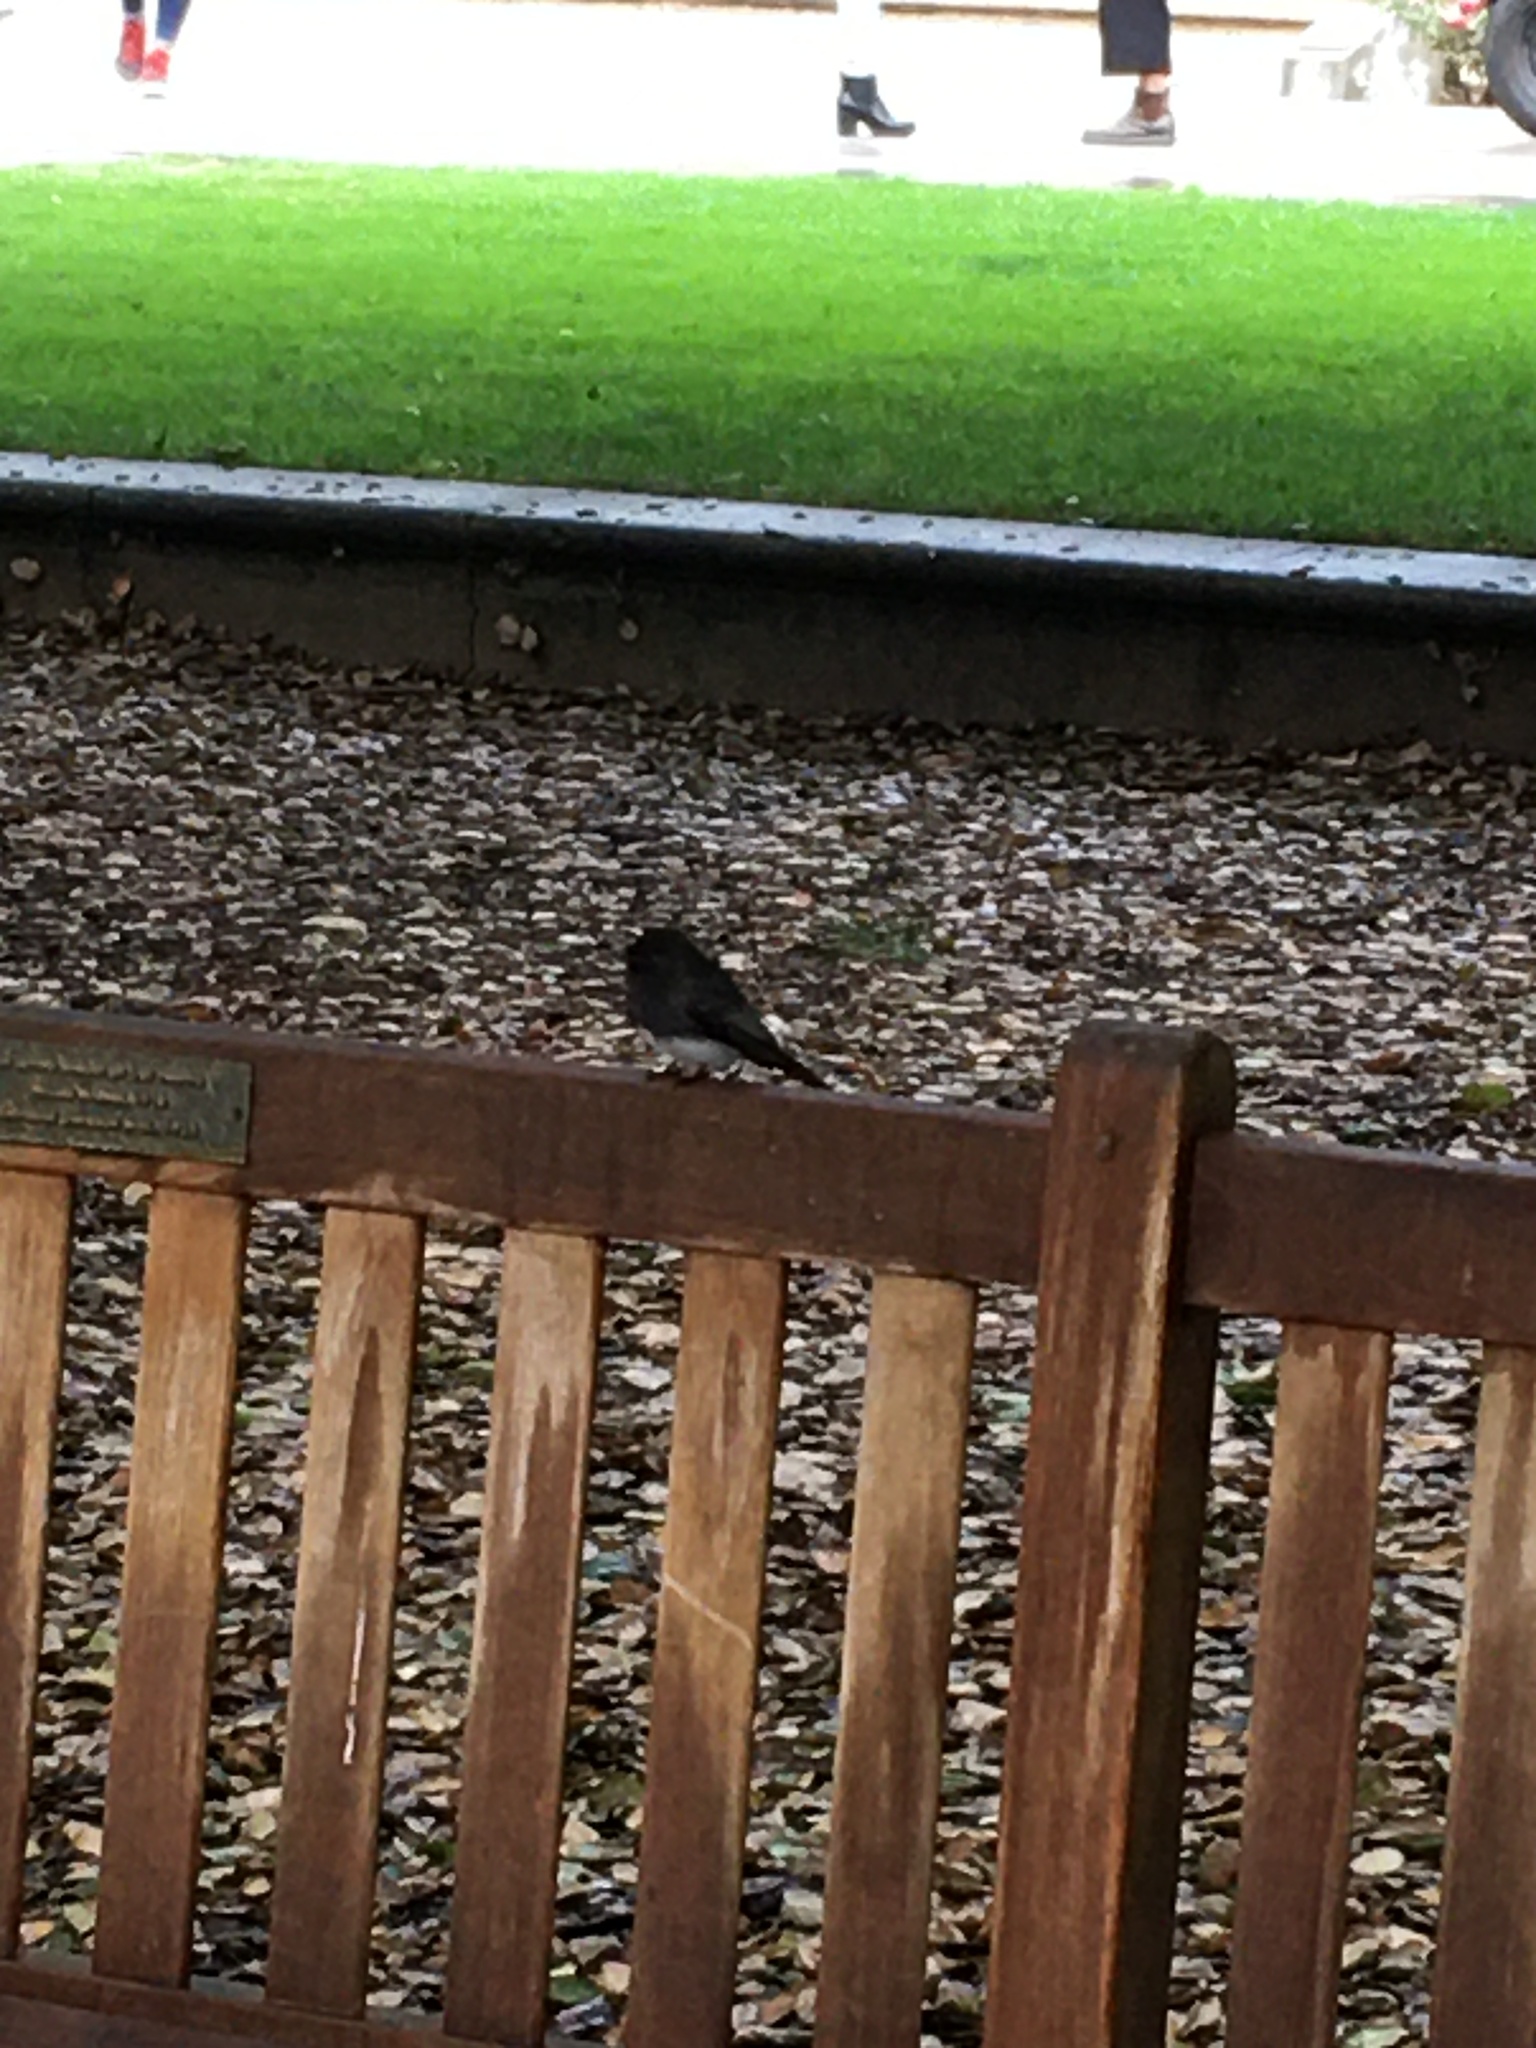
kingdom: Animalia
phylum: Chordata
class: Aves
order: Passeriformes
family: Tyrannidae
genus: Sayornis
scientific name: Sayornis nigricans
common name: Black phoebe
